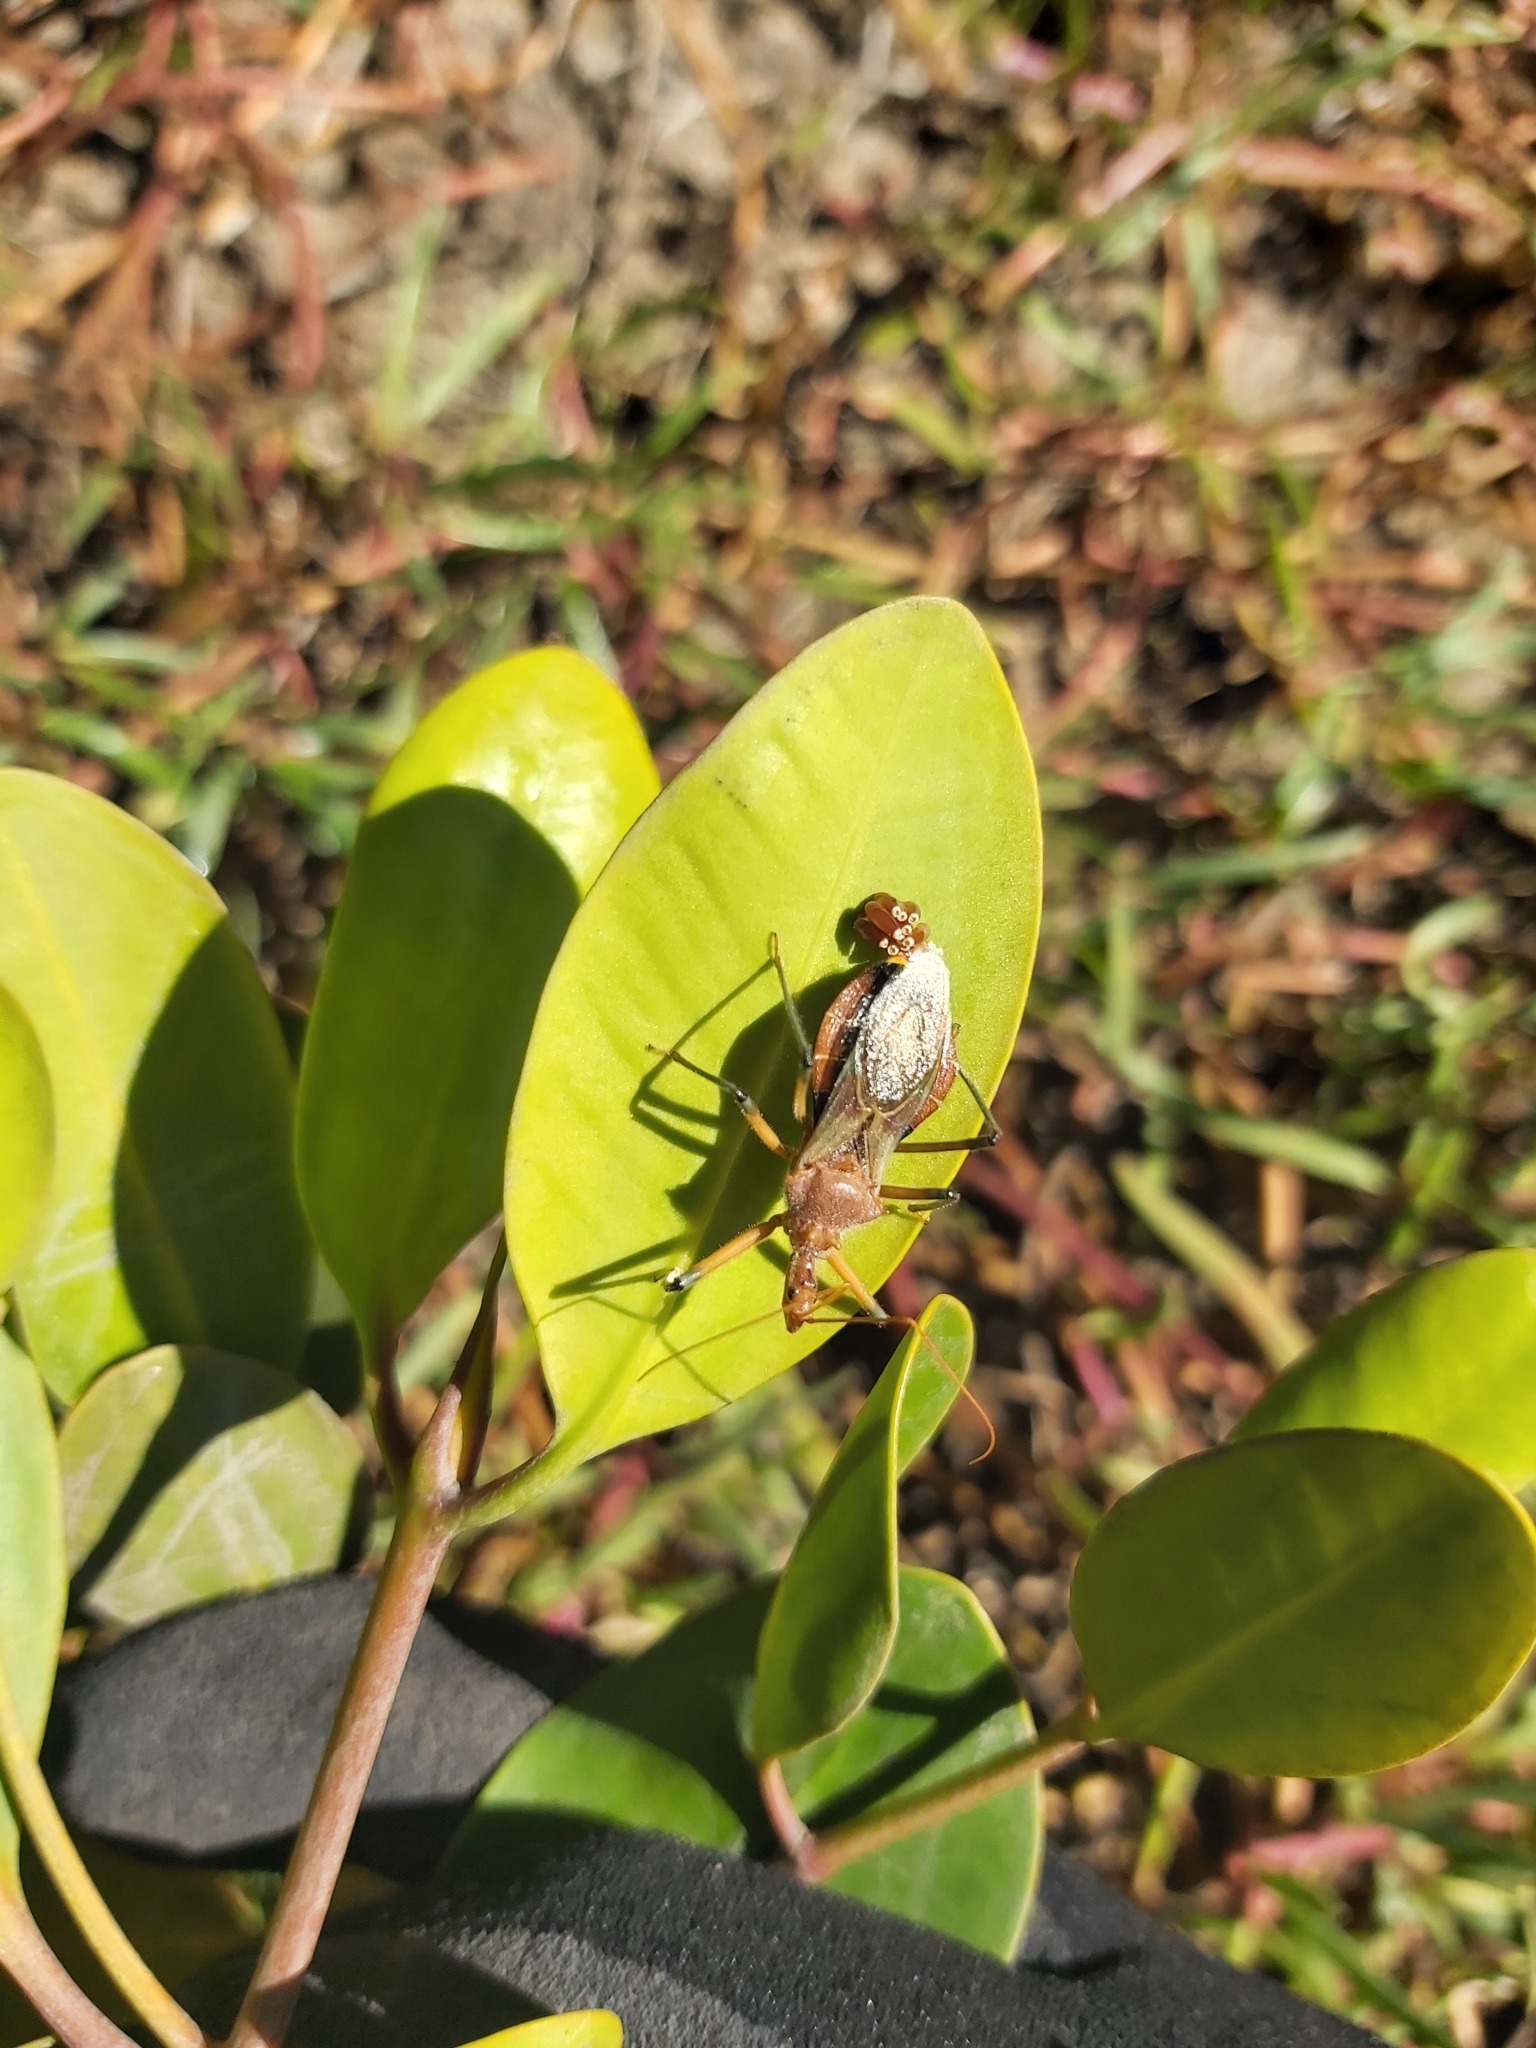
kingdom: Animalia
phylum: Arthropoda
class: Insecta
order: Hemiptera
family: Reduviidae
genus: Pristhesancus
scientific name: Pristhesancus plagipennis
